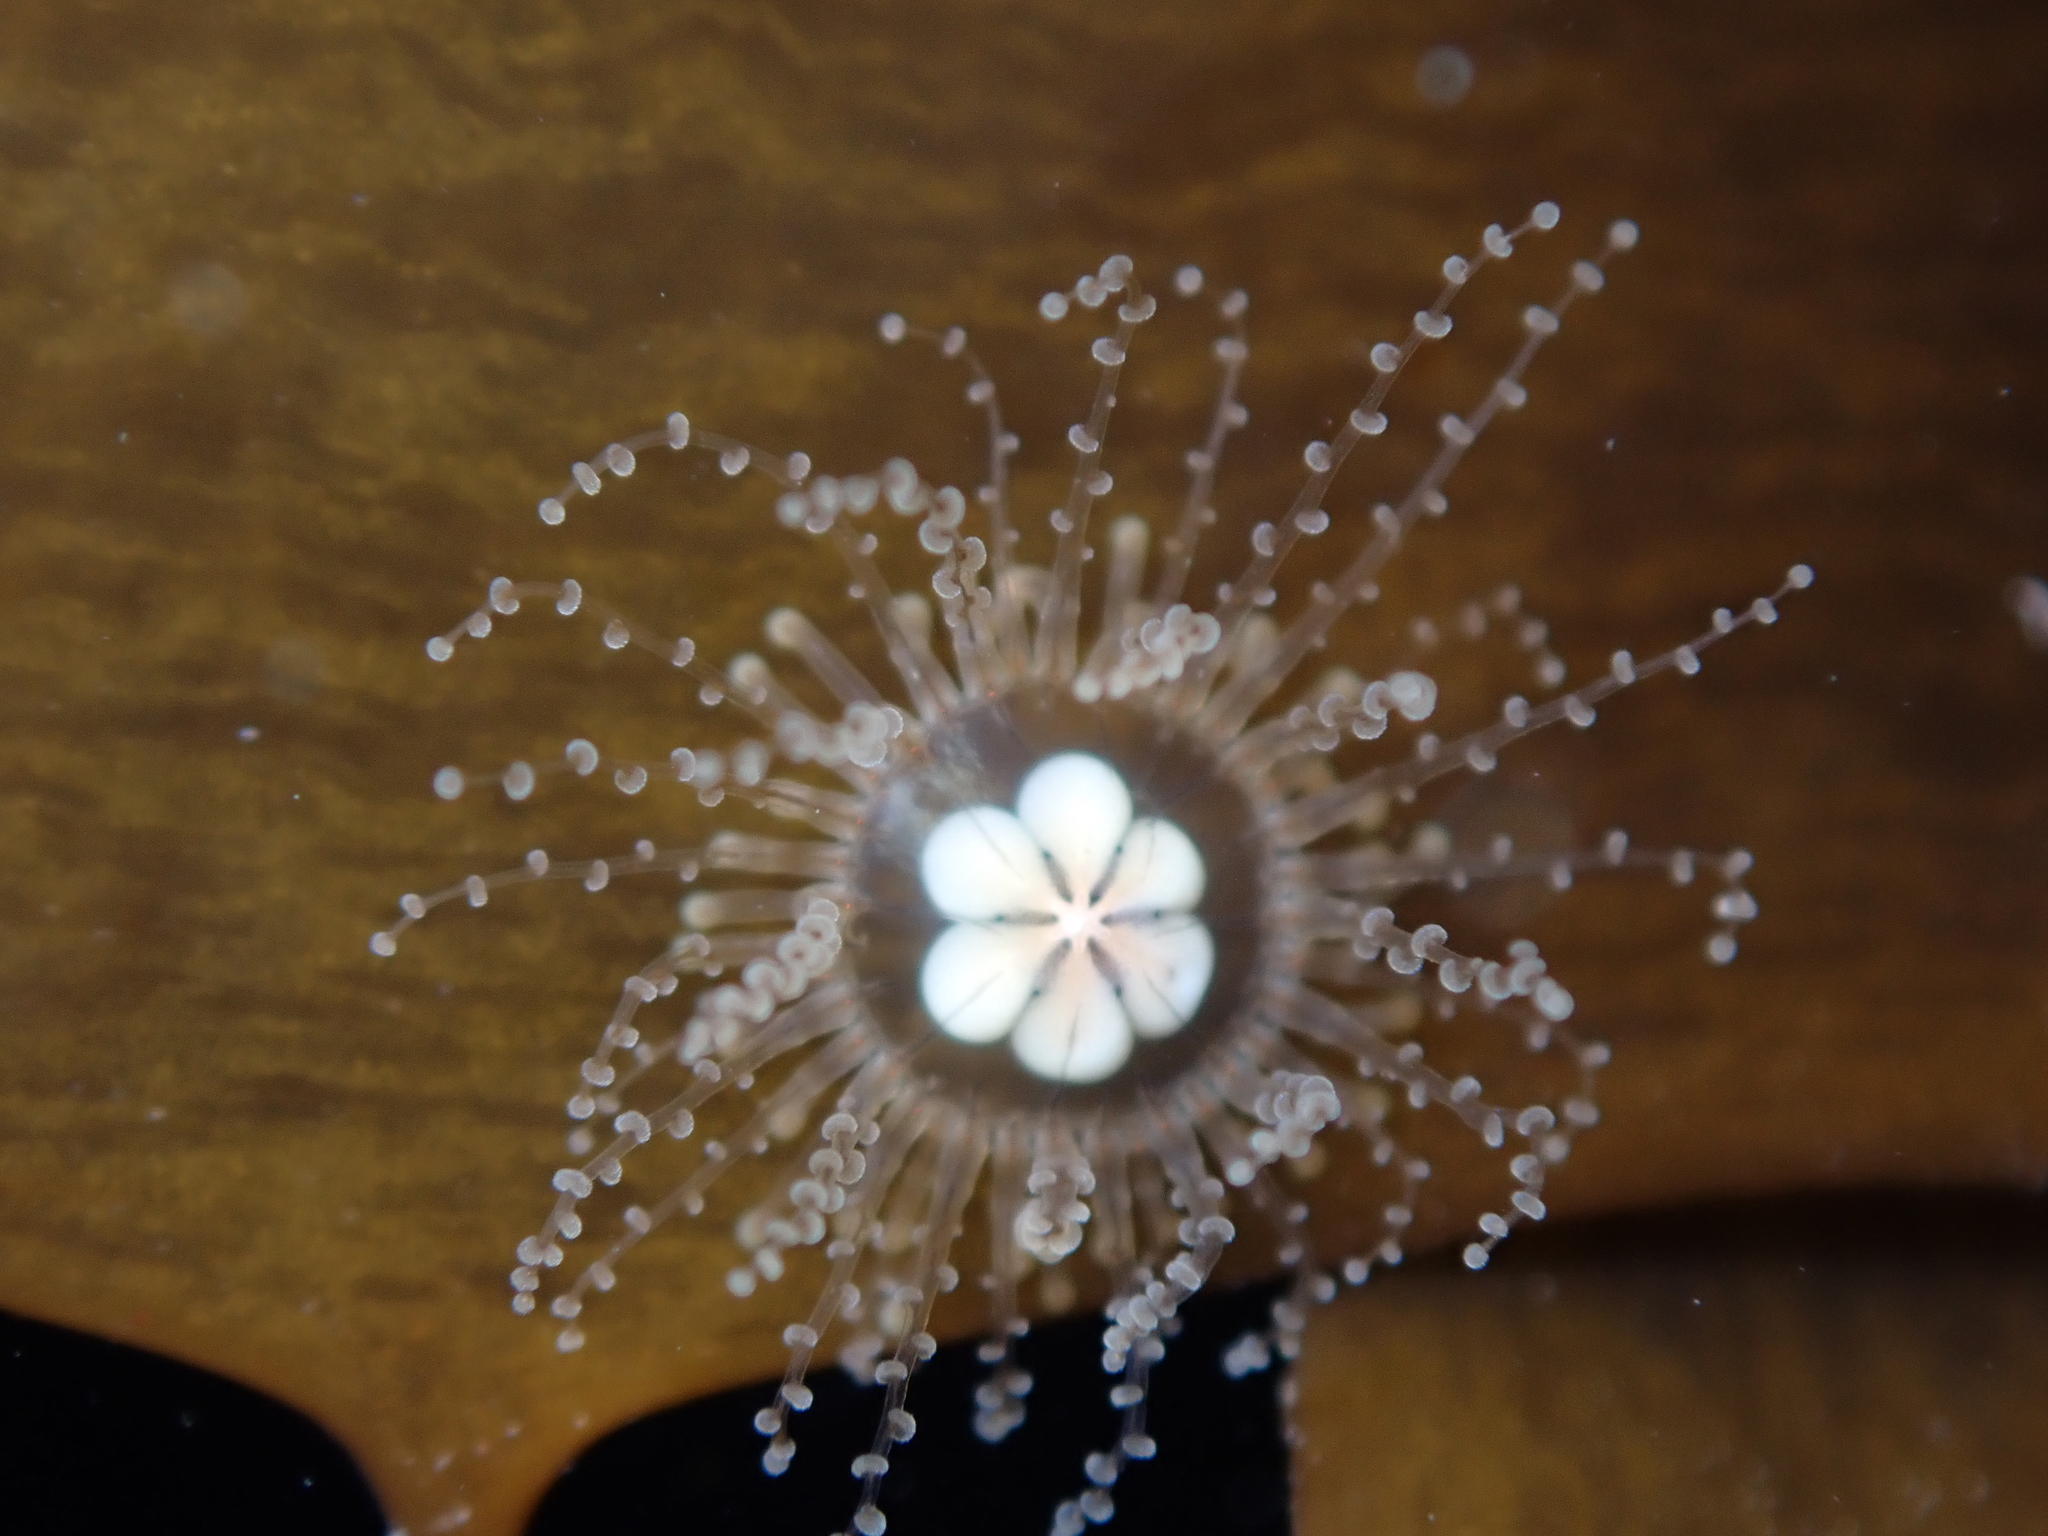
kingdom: Animalia
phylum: Cnidaria
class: Hydrozoa
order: Anthoathecata
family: Cladonematidae
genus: Staurocladia
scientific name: Staurocladia wellingtoni
